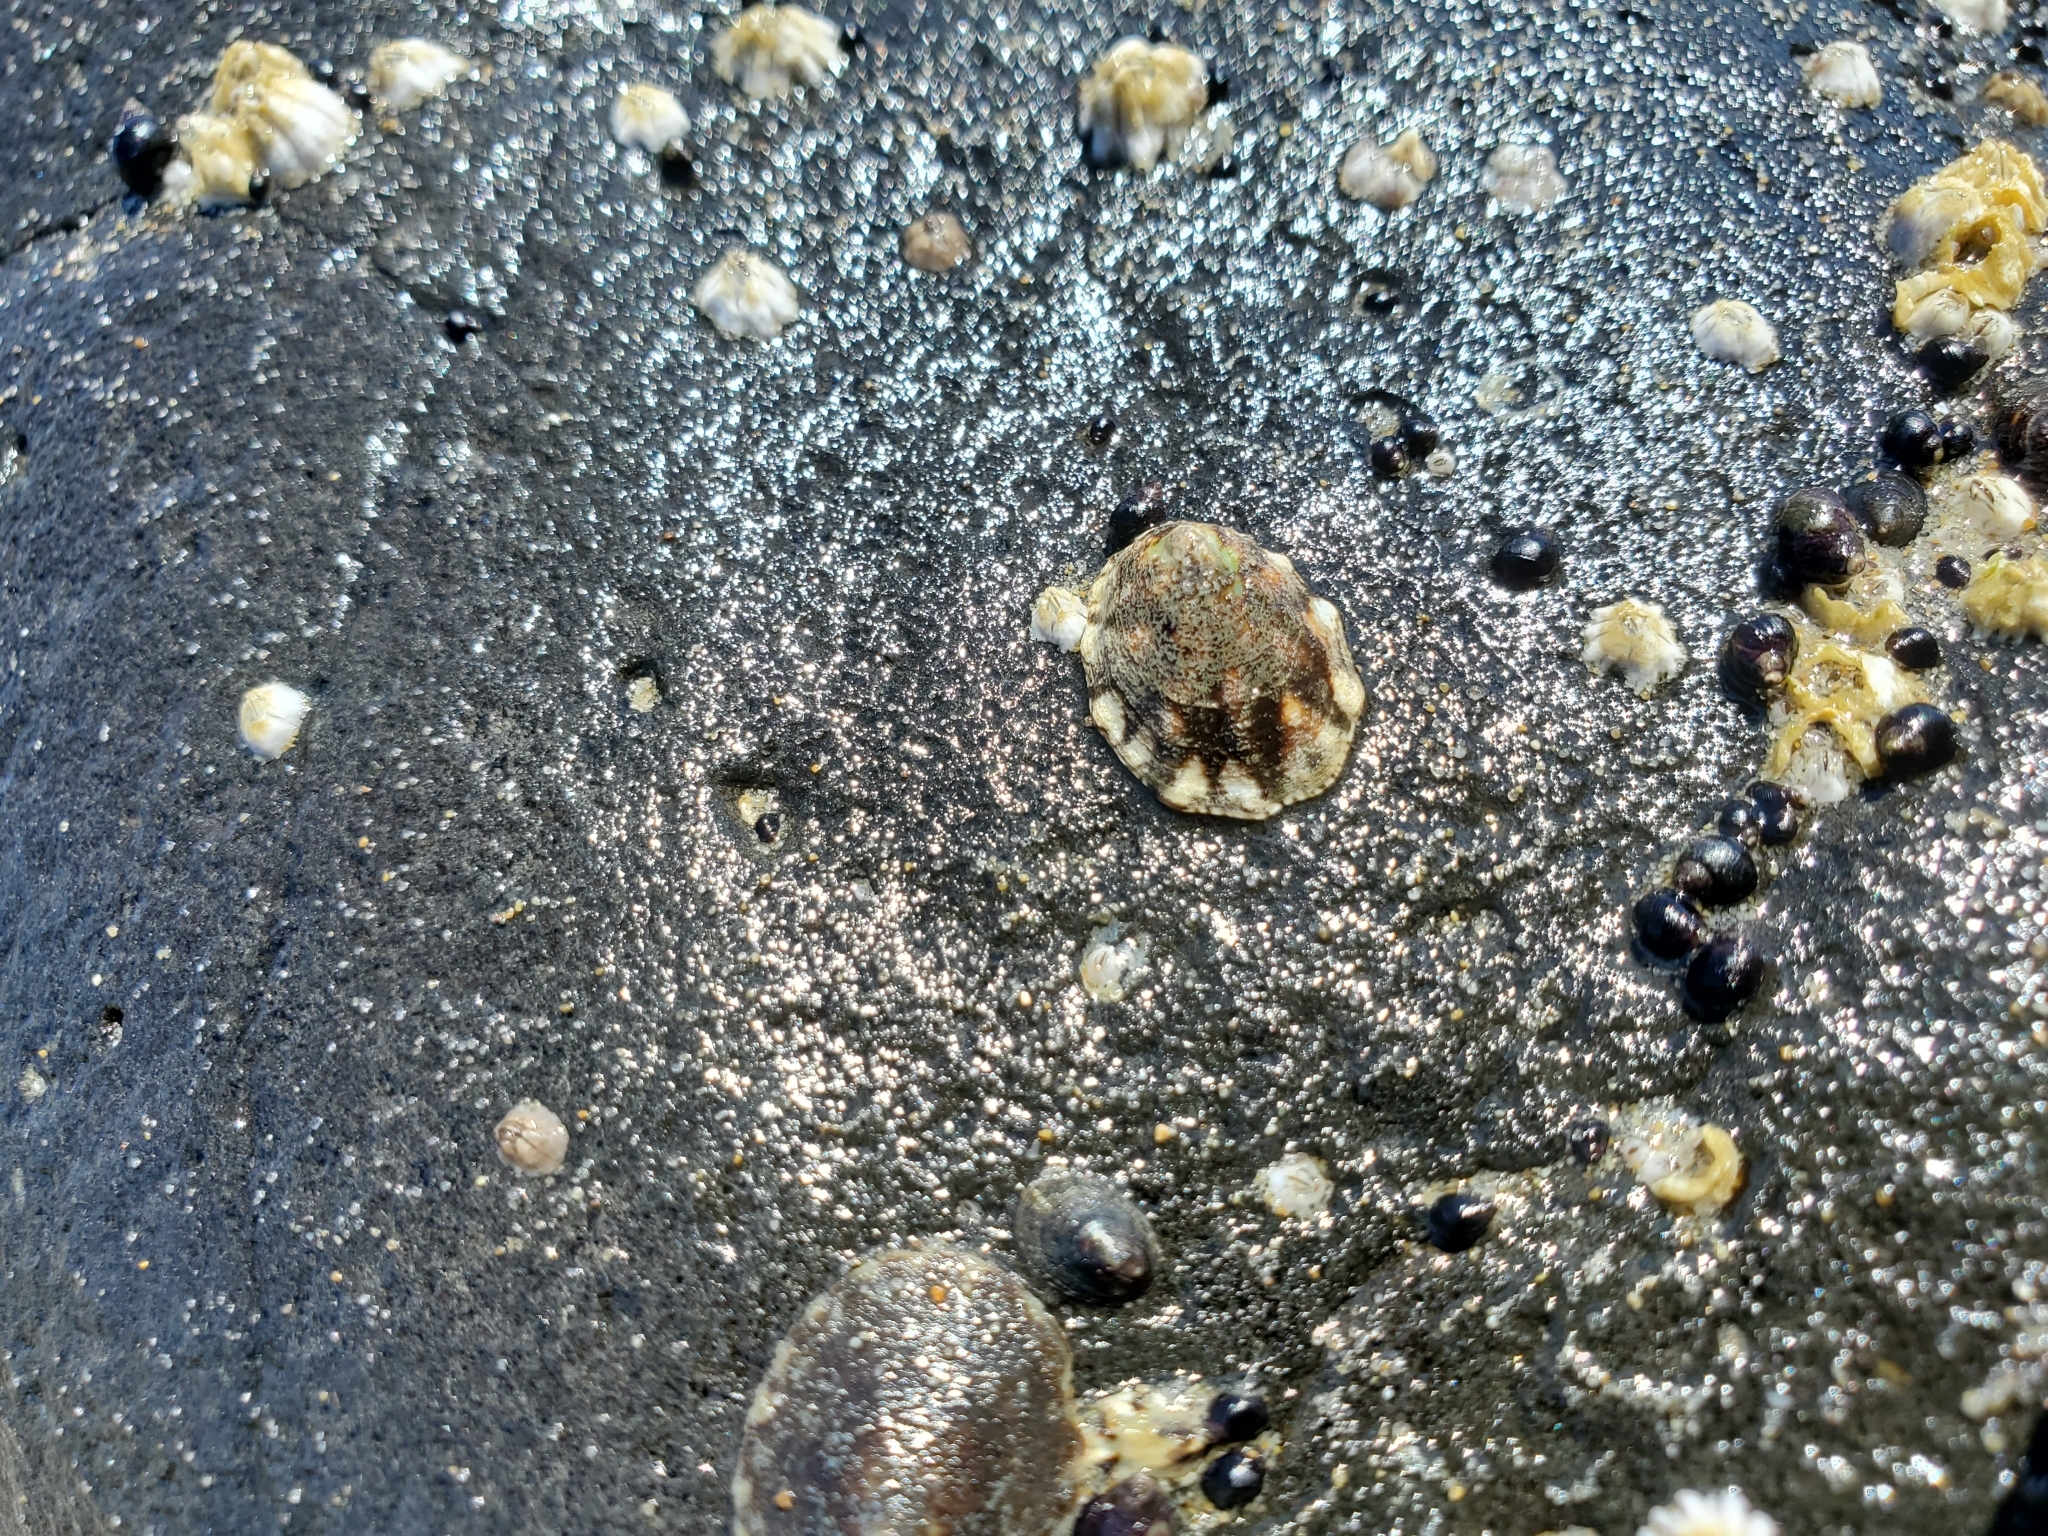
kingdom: Animalia
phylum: Mollusca
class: Gastropoda
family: Lottiidae
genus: Lottia
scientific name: Lottia digitalis
